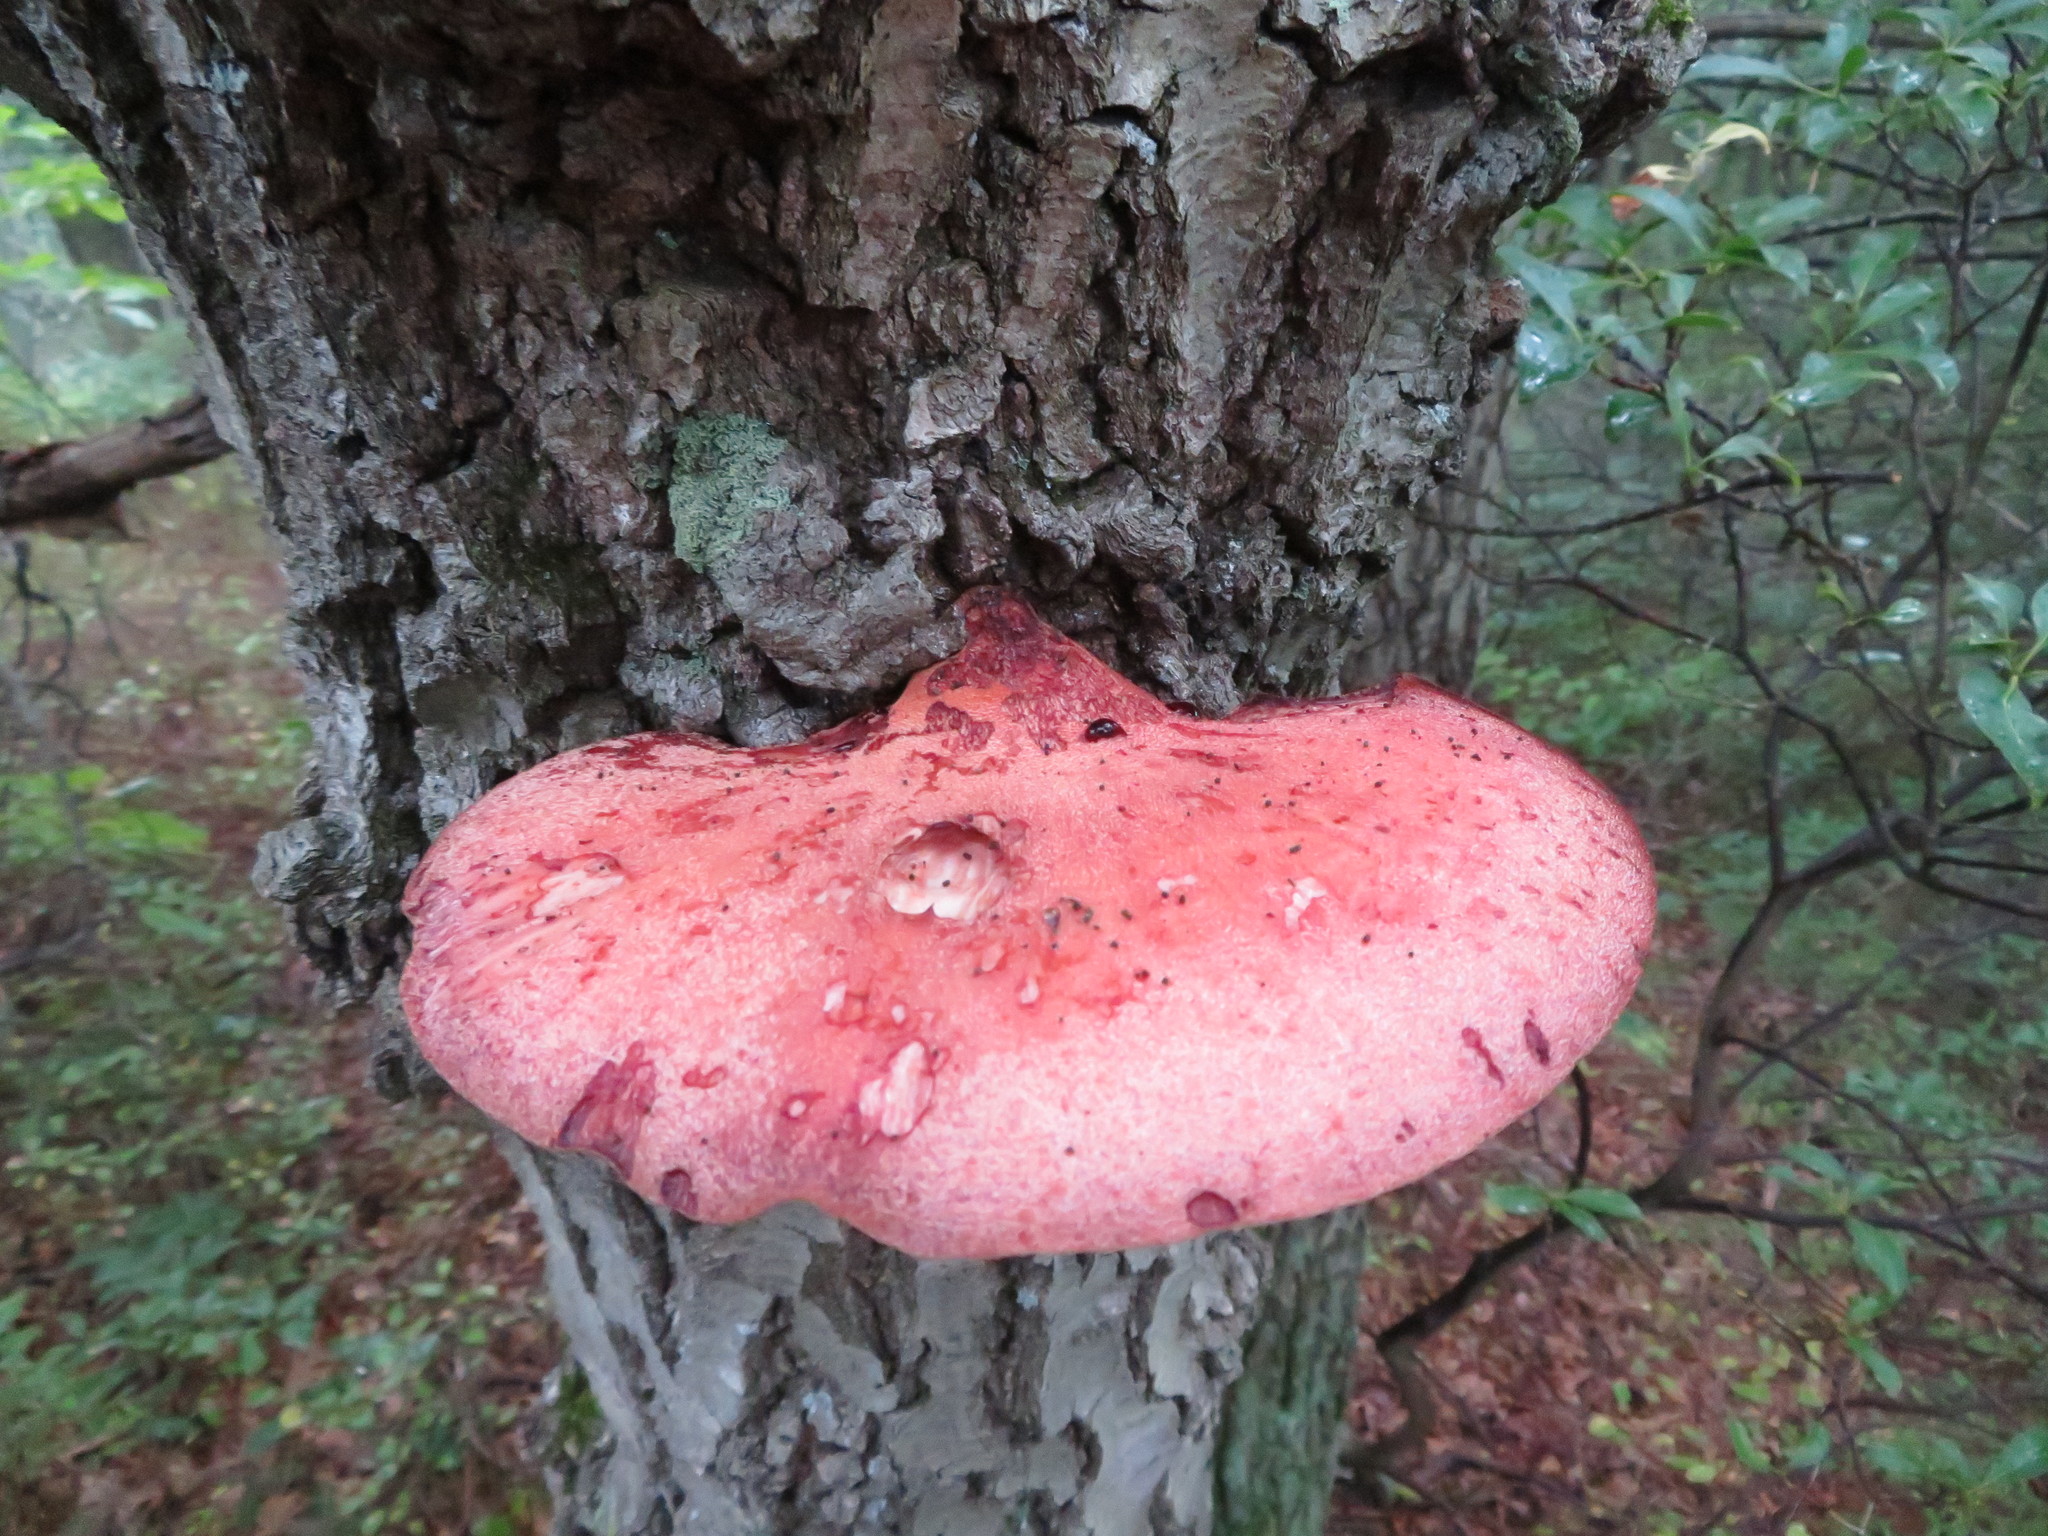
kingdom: Fungi
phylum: Basidiomycota
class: Agaricomycetes
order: Agaricales
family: Fistulinaceae
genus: Fistulina
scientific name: Fistulina hepatica
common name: Beef-steak fungus
